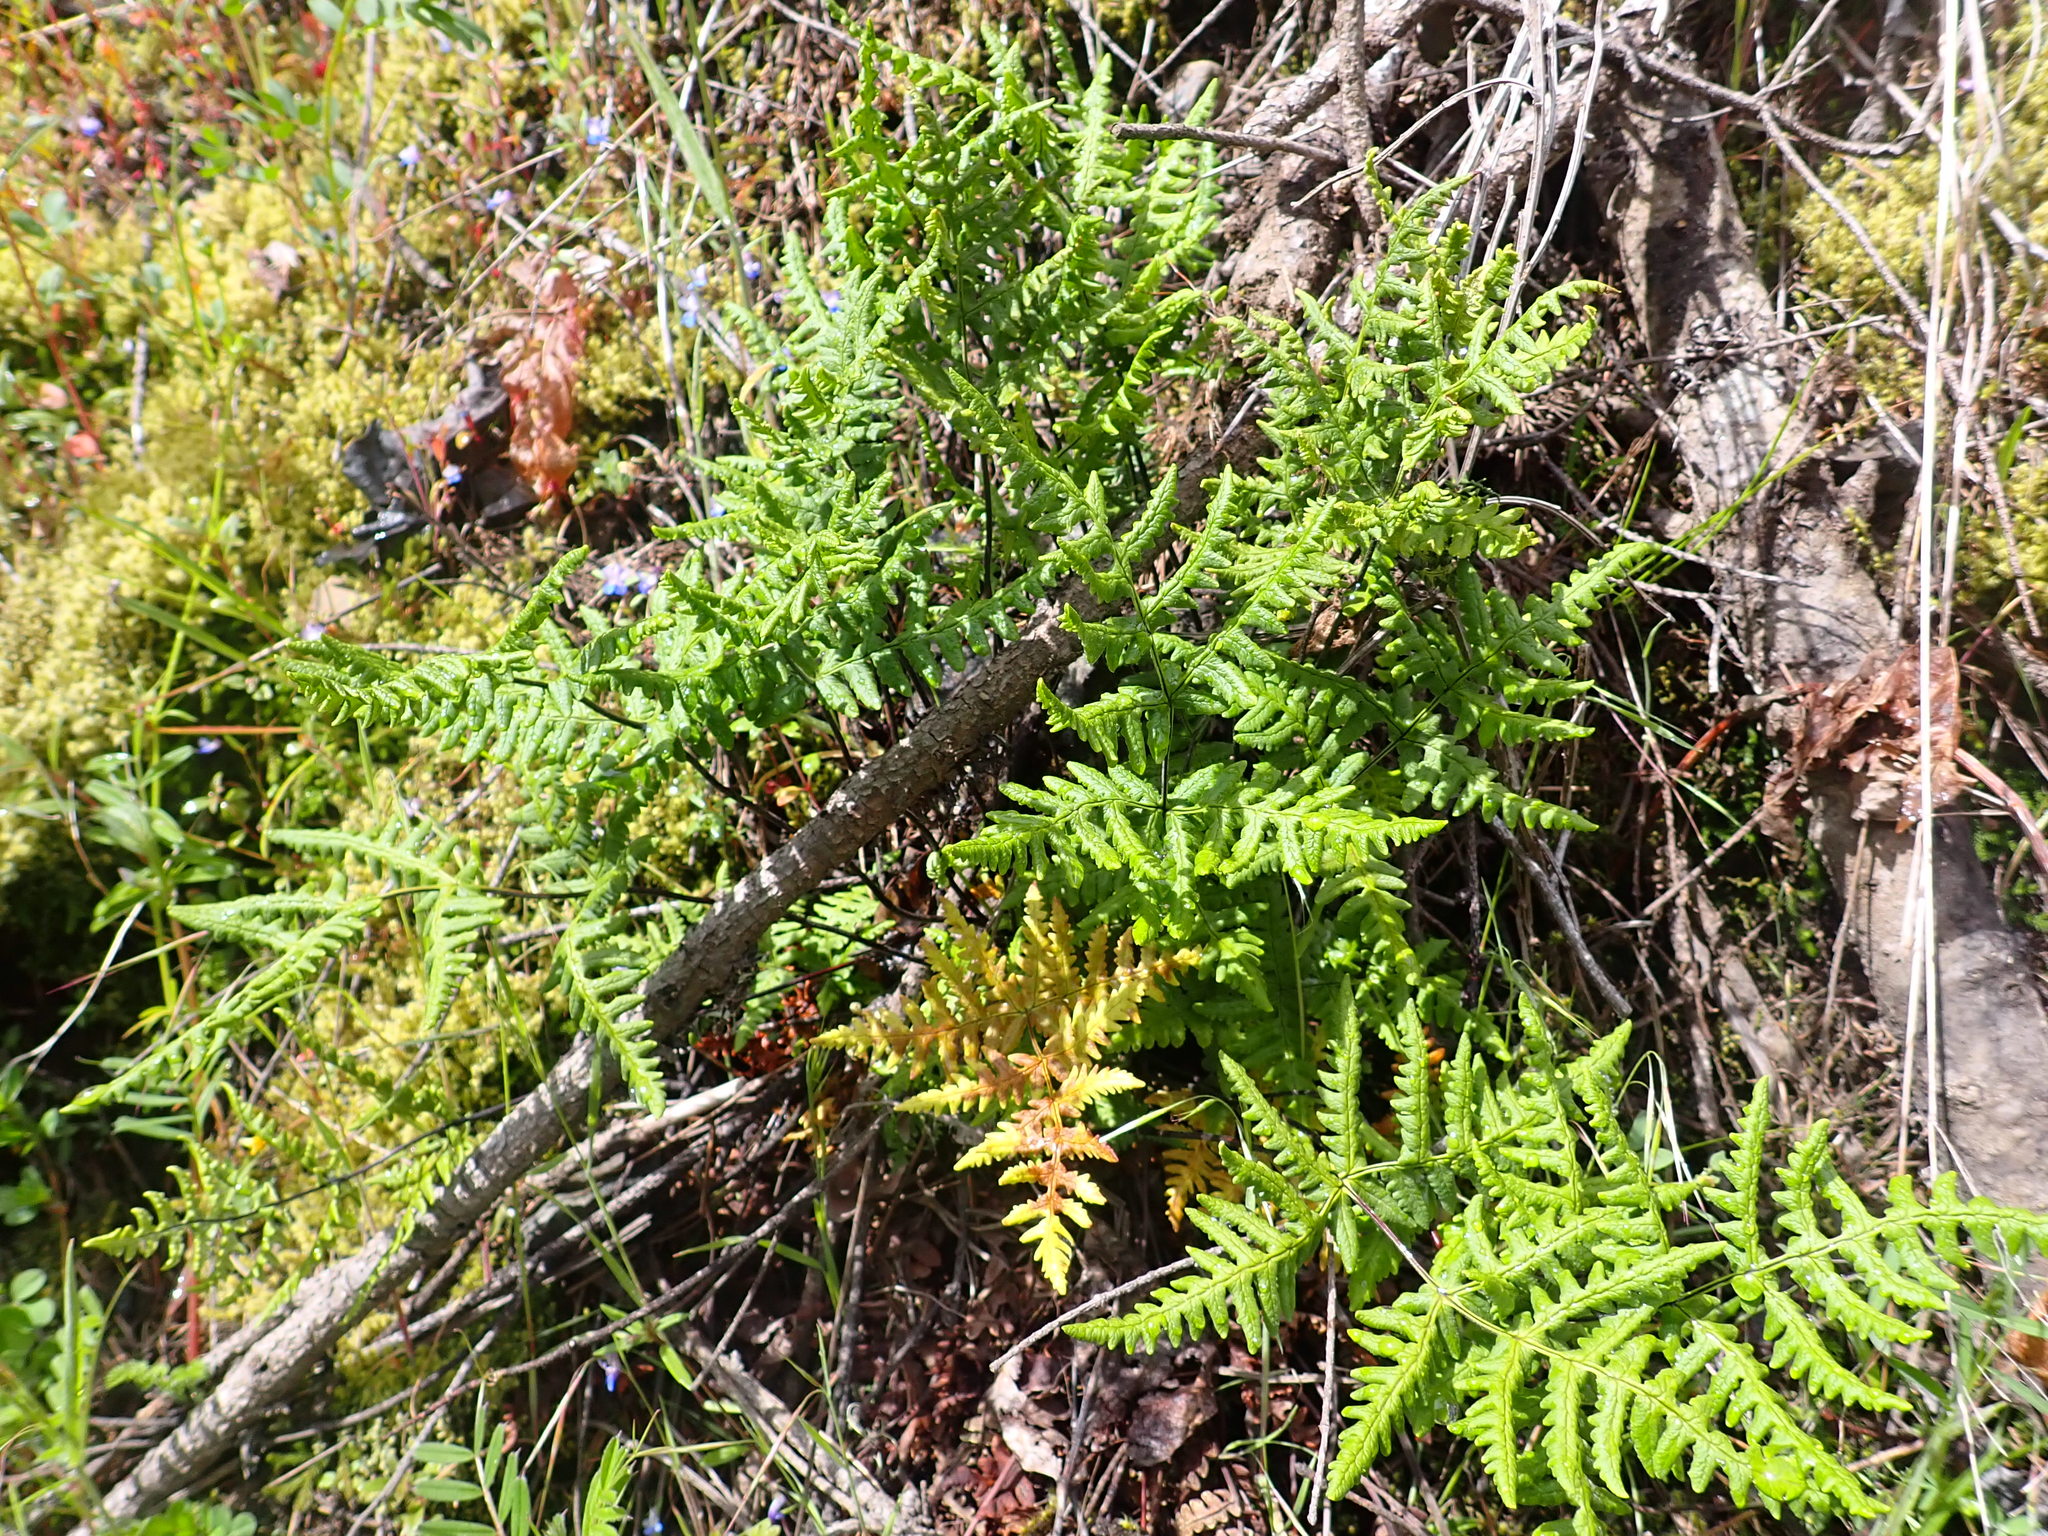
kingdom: Plantae
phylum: Tracheophyta
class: Polypodiopsida
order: Polypodiales
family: Pteridaceae
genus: Pentagramma
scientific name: Pentagramma triangularis
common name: Gold fern
